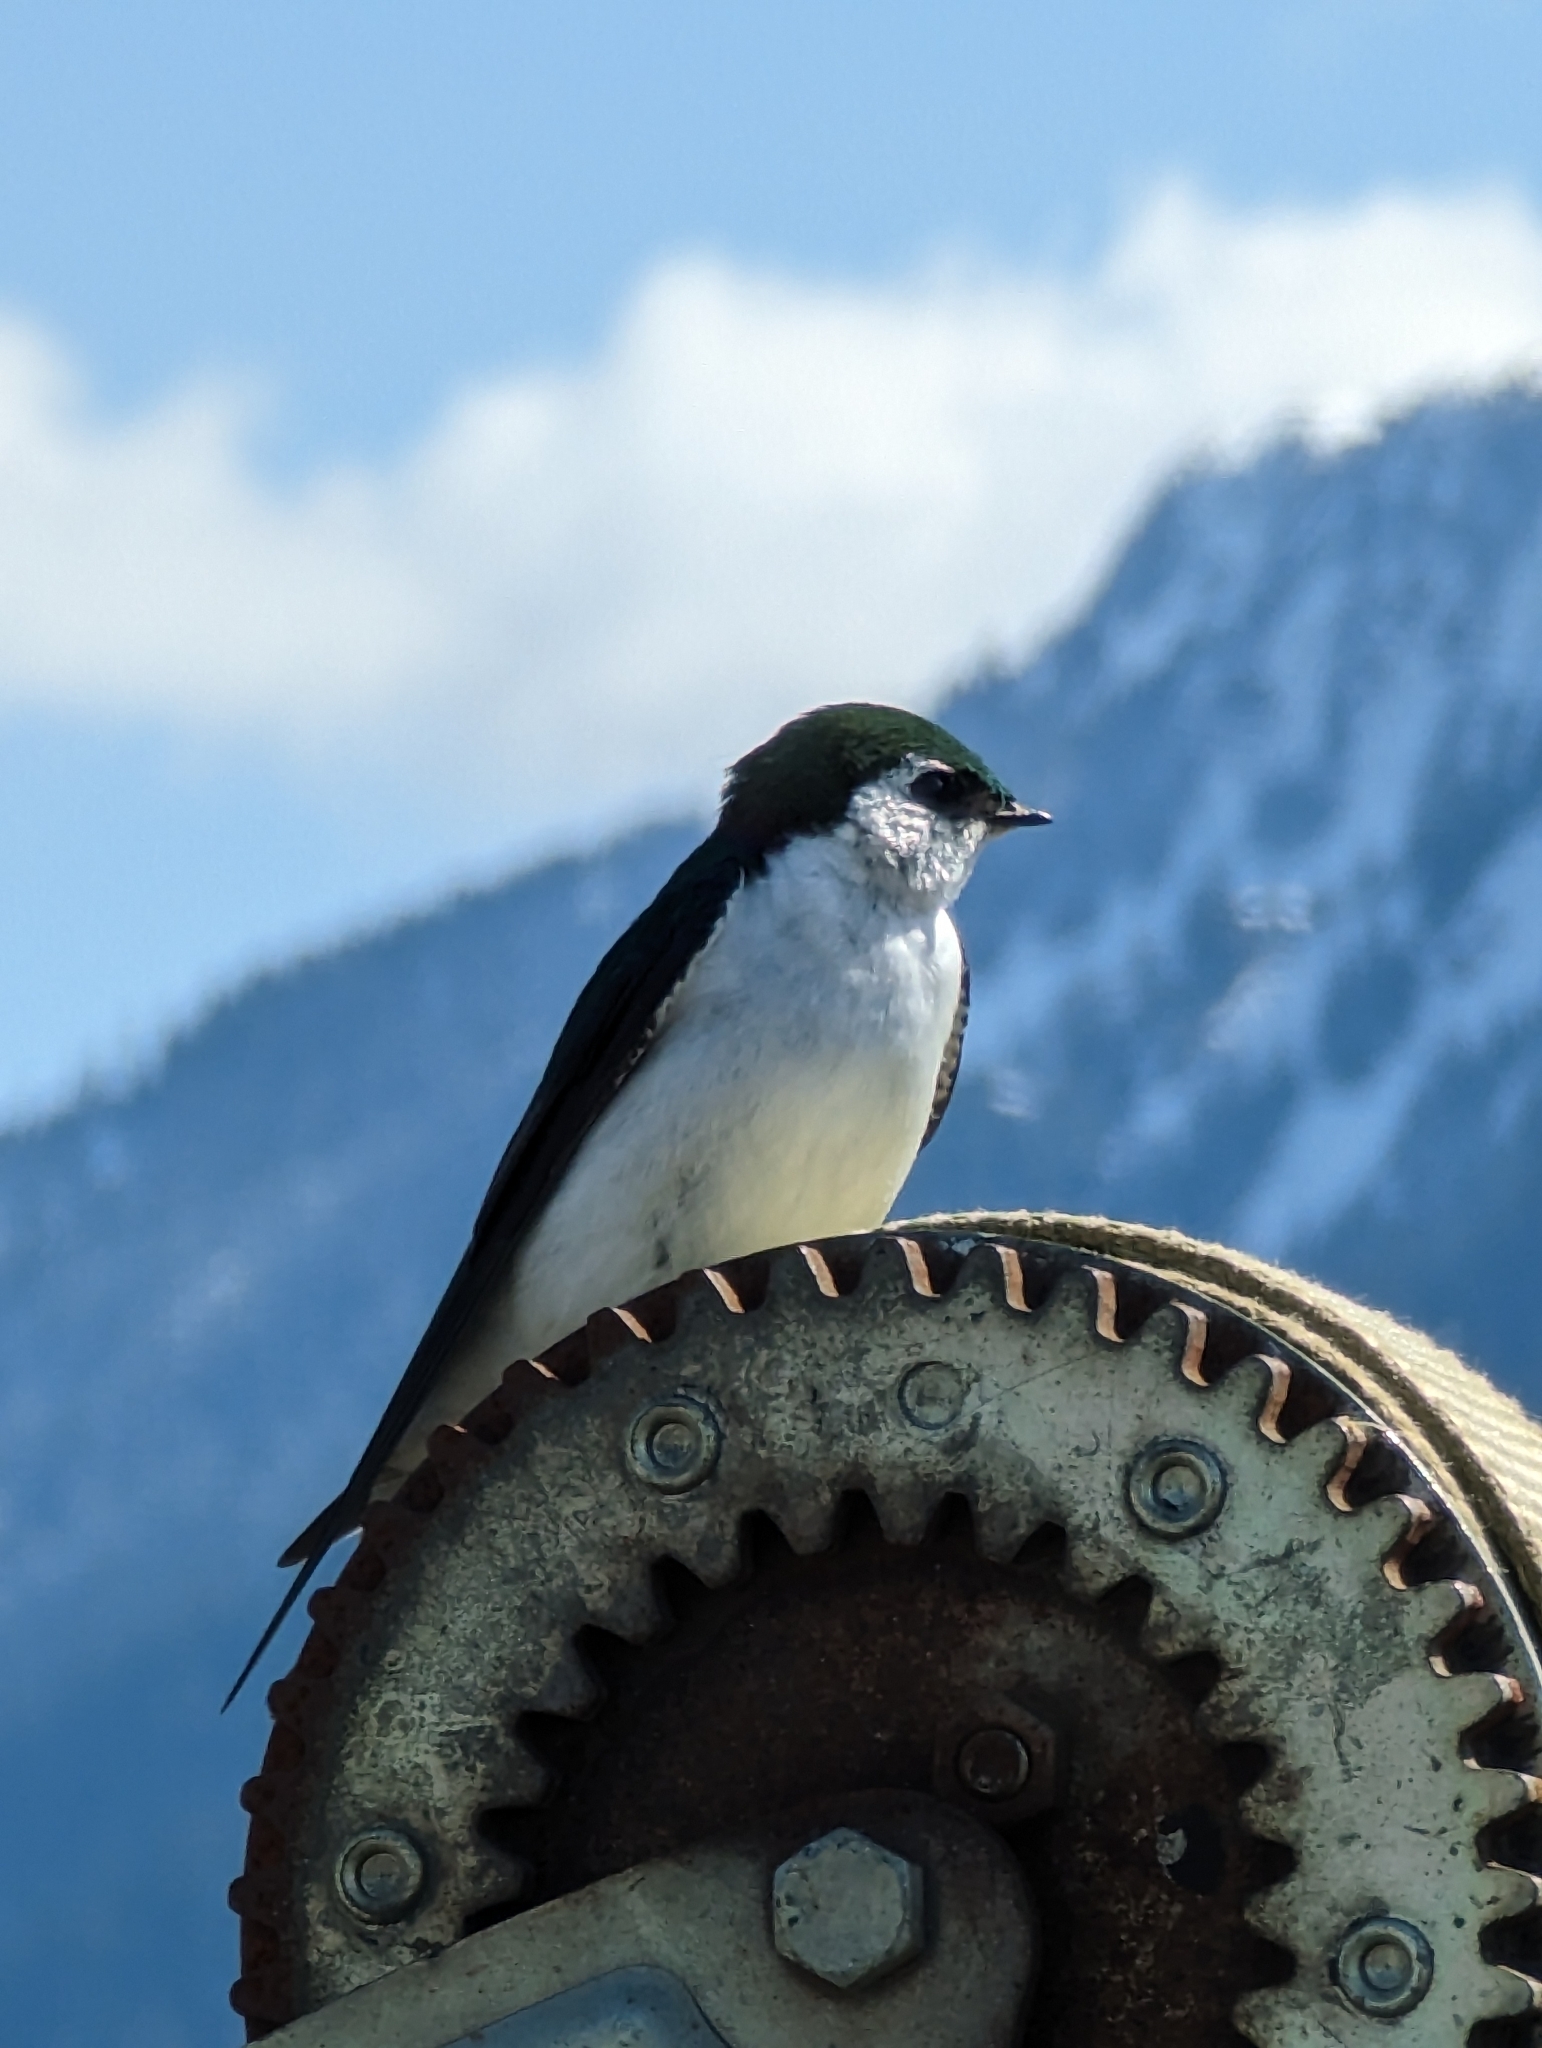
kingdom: Animalia
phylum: Chordata
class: Aves
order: Passeriformes
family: Hirundinidae
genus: Tachycineta
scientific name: Tachycineta thalassina
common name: Violet-green swallow
